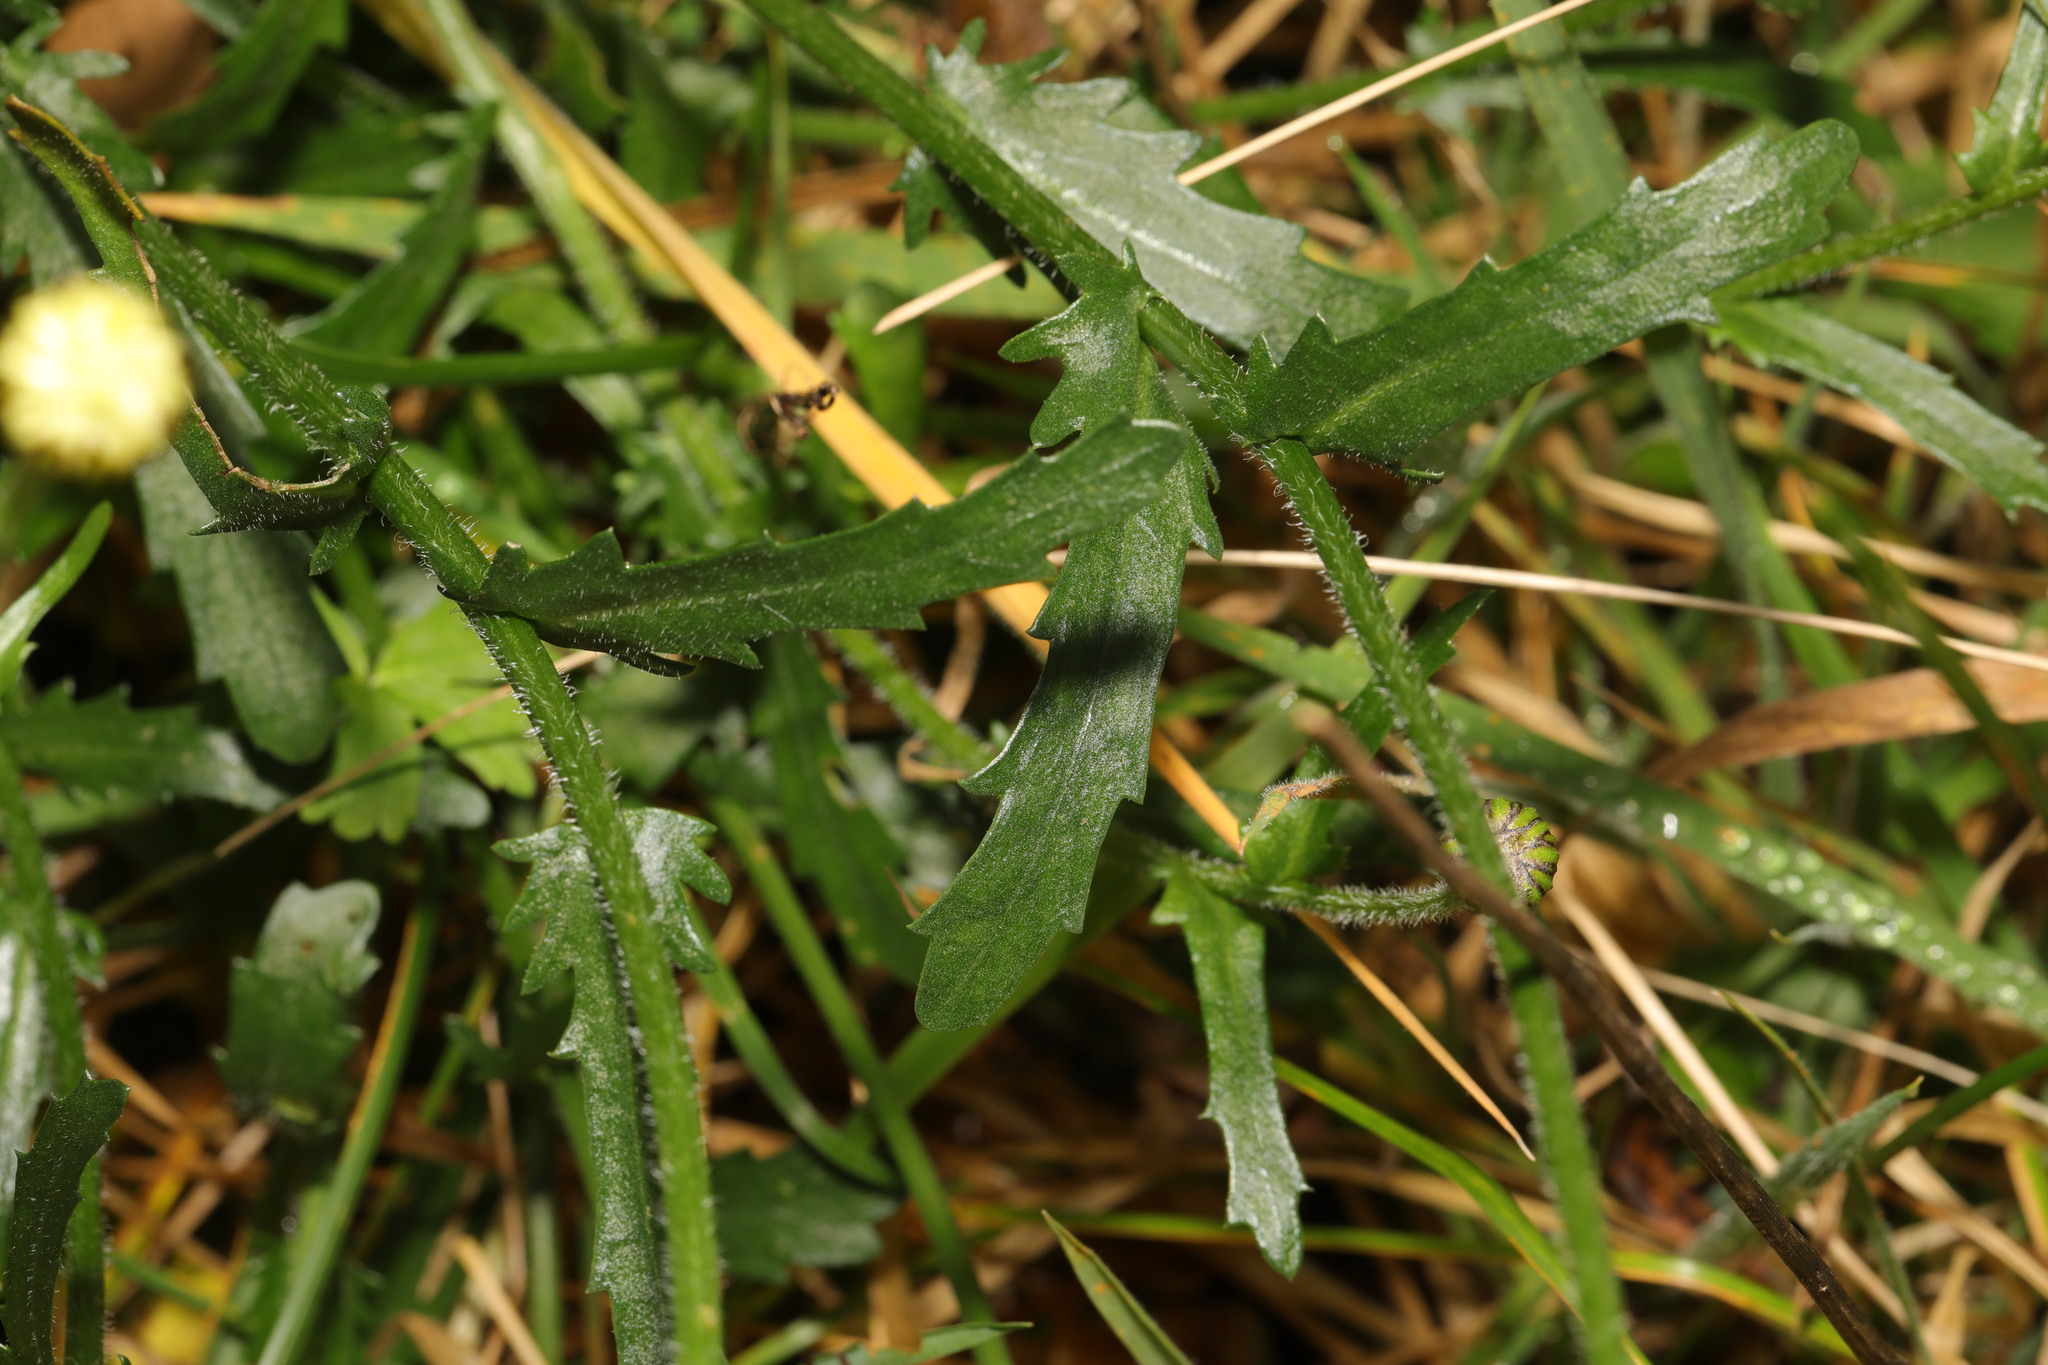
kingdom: Plantae
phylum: Tracheophyta
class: Magnoliopsida
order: Asterales
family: Asteraceae
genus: Leucanthemum
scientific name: Leucanthemum vulgare
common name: Oxeye daisy
